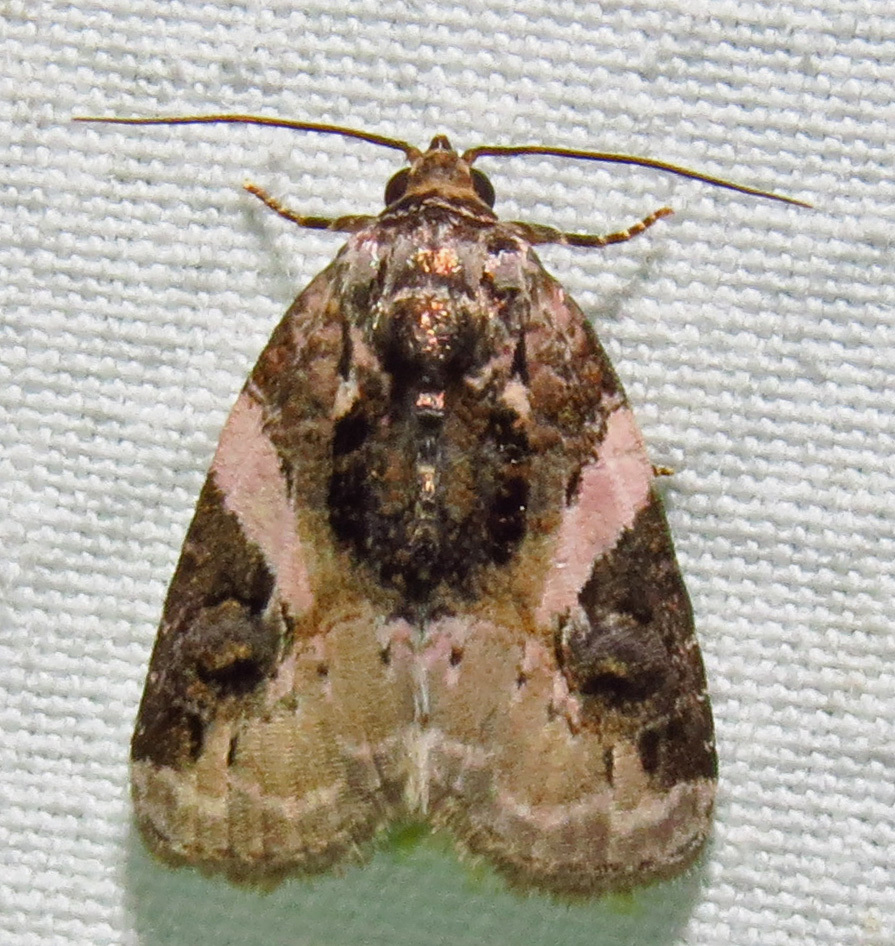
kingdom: Animalia
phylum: Arthropoda
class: Insecta
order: Lepidoptera
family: Noctuidae
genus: Pseudeustrotia
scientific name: Pseudeustrotia carneola
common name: Pink-barred lithacodia moth
